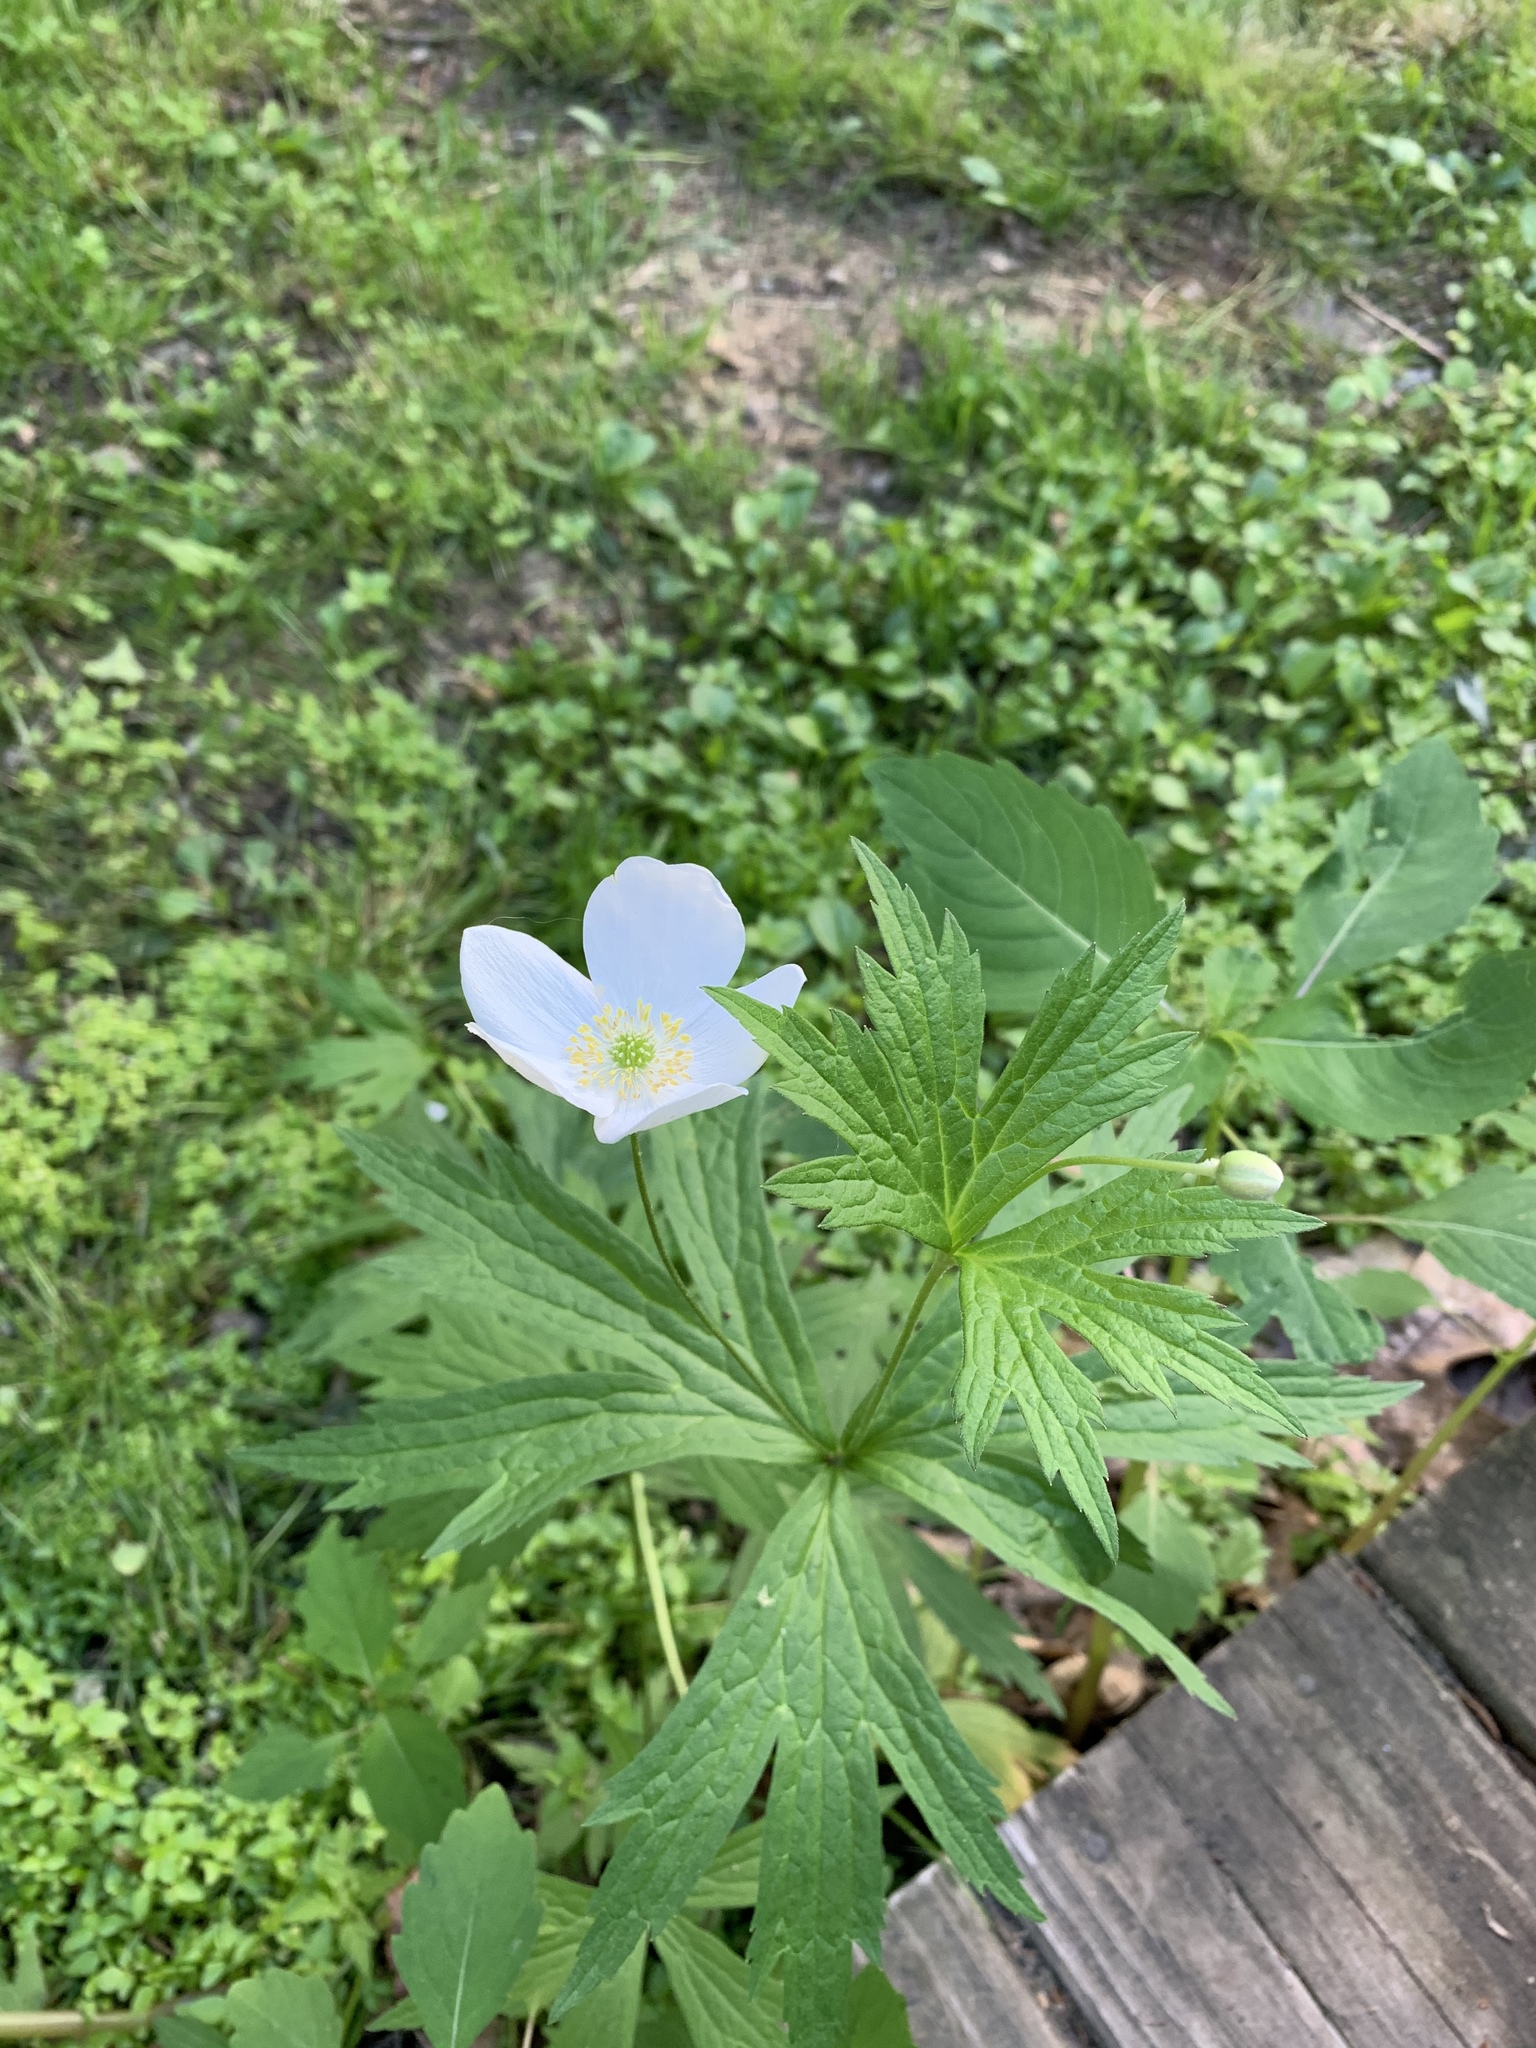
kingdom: Plantae
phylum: Tracheophyta
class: Magnoliopsida
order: Ranunculales
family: Ranunculaceae
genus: Anemonastrum
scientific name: Anemonastrum canadense
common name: Canada anemone
